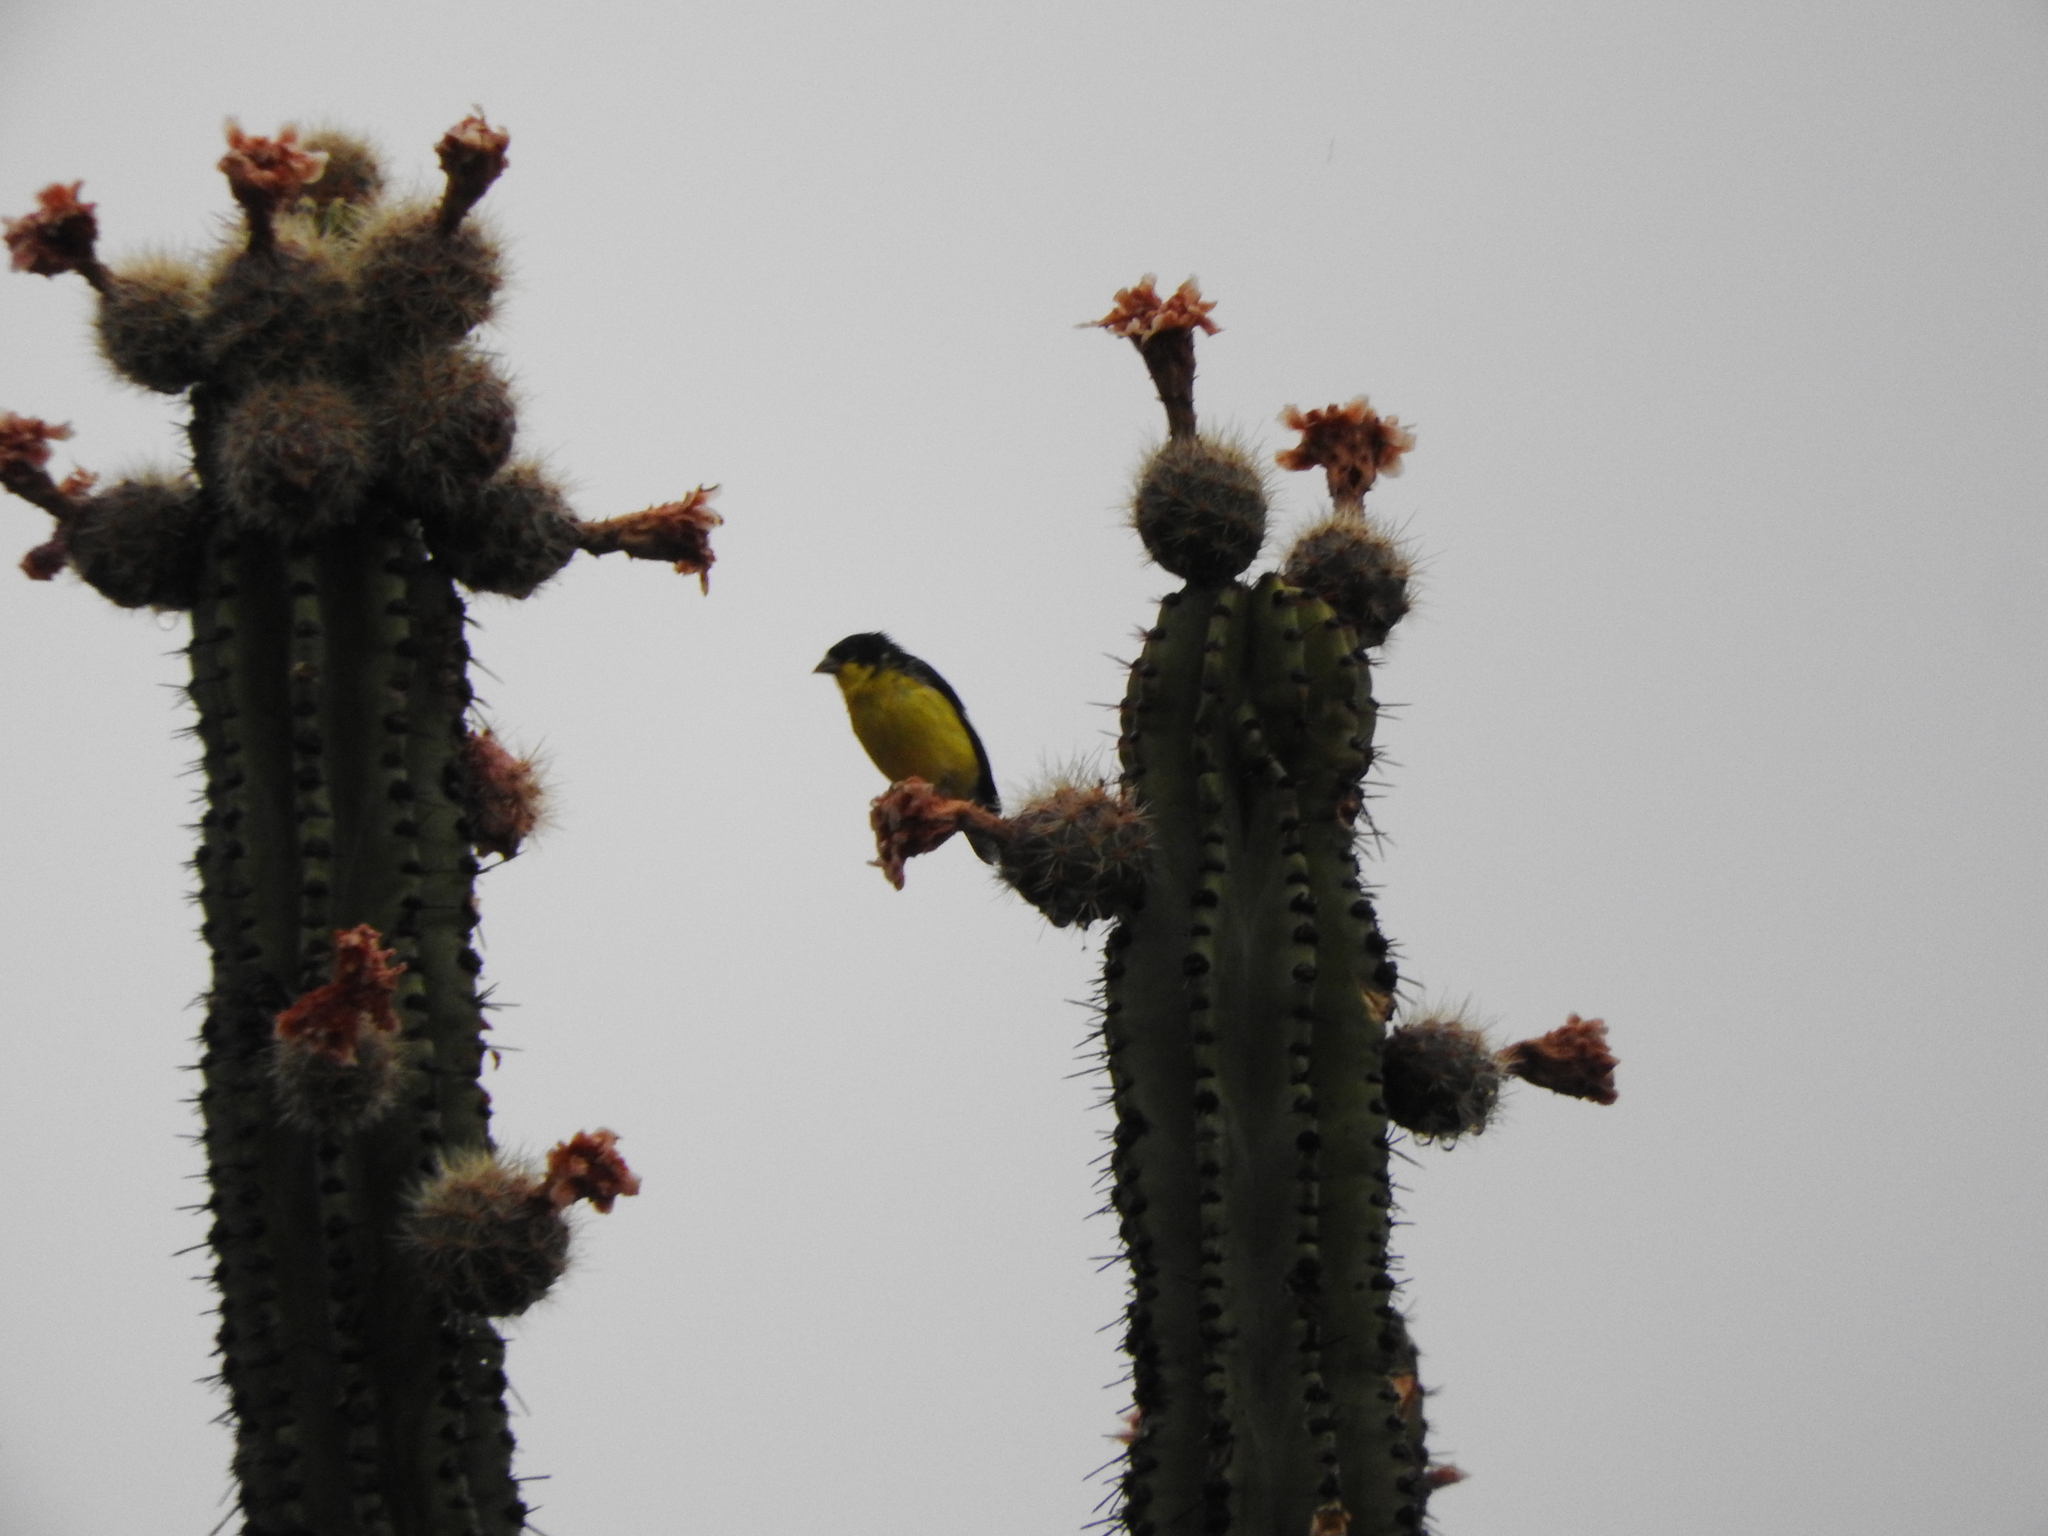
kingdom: Animalia
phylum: Chordata
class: Aves
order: Passeriformes
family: Fringillidae
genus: Spinus
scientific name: Spinus psaltria
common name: Lesser goldfinch
